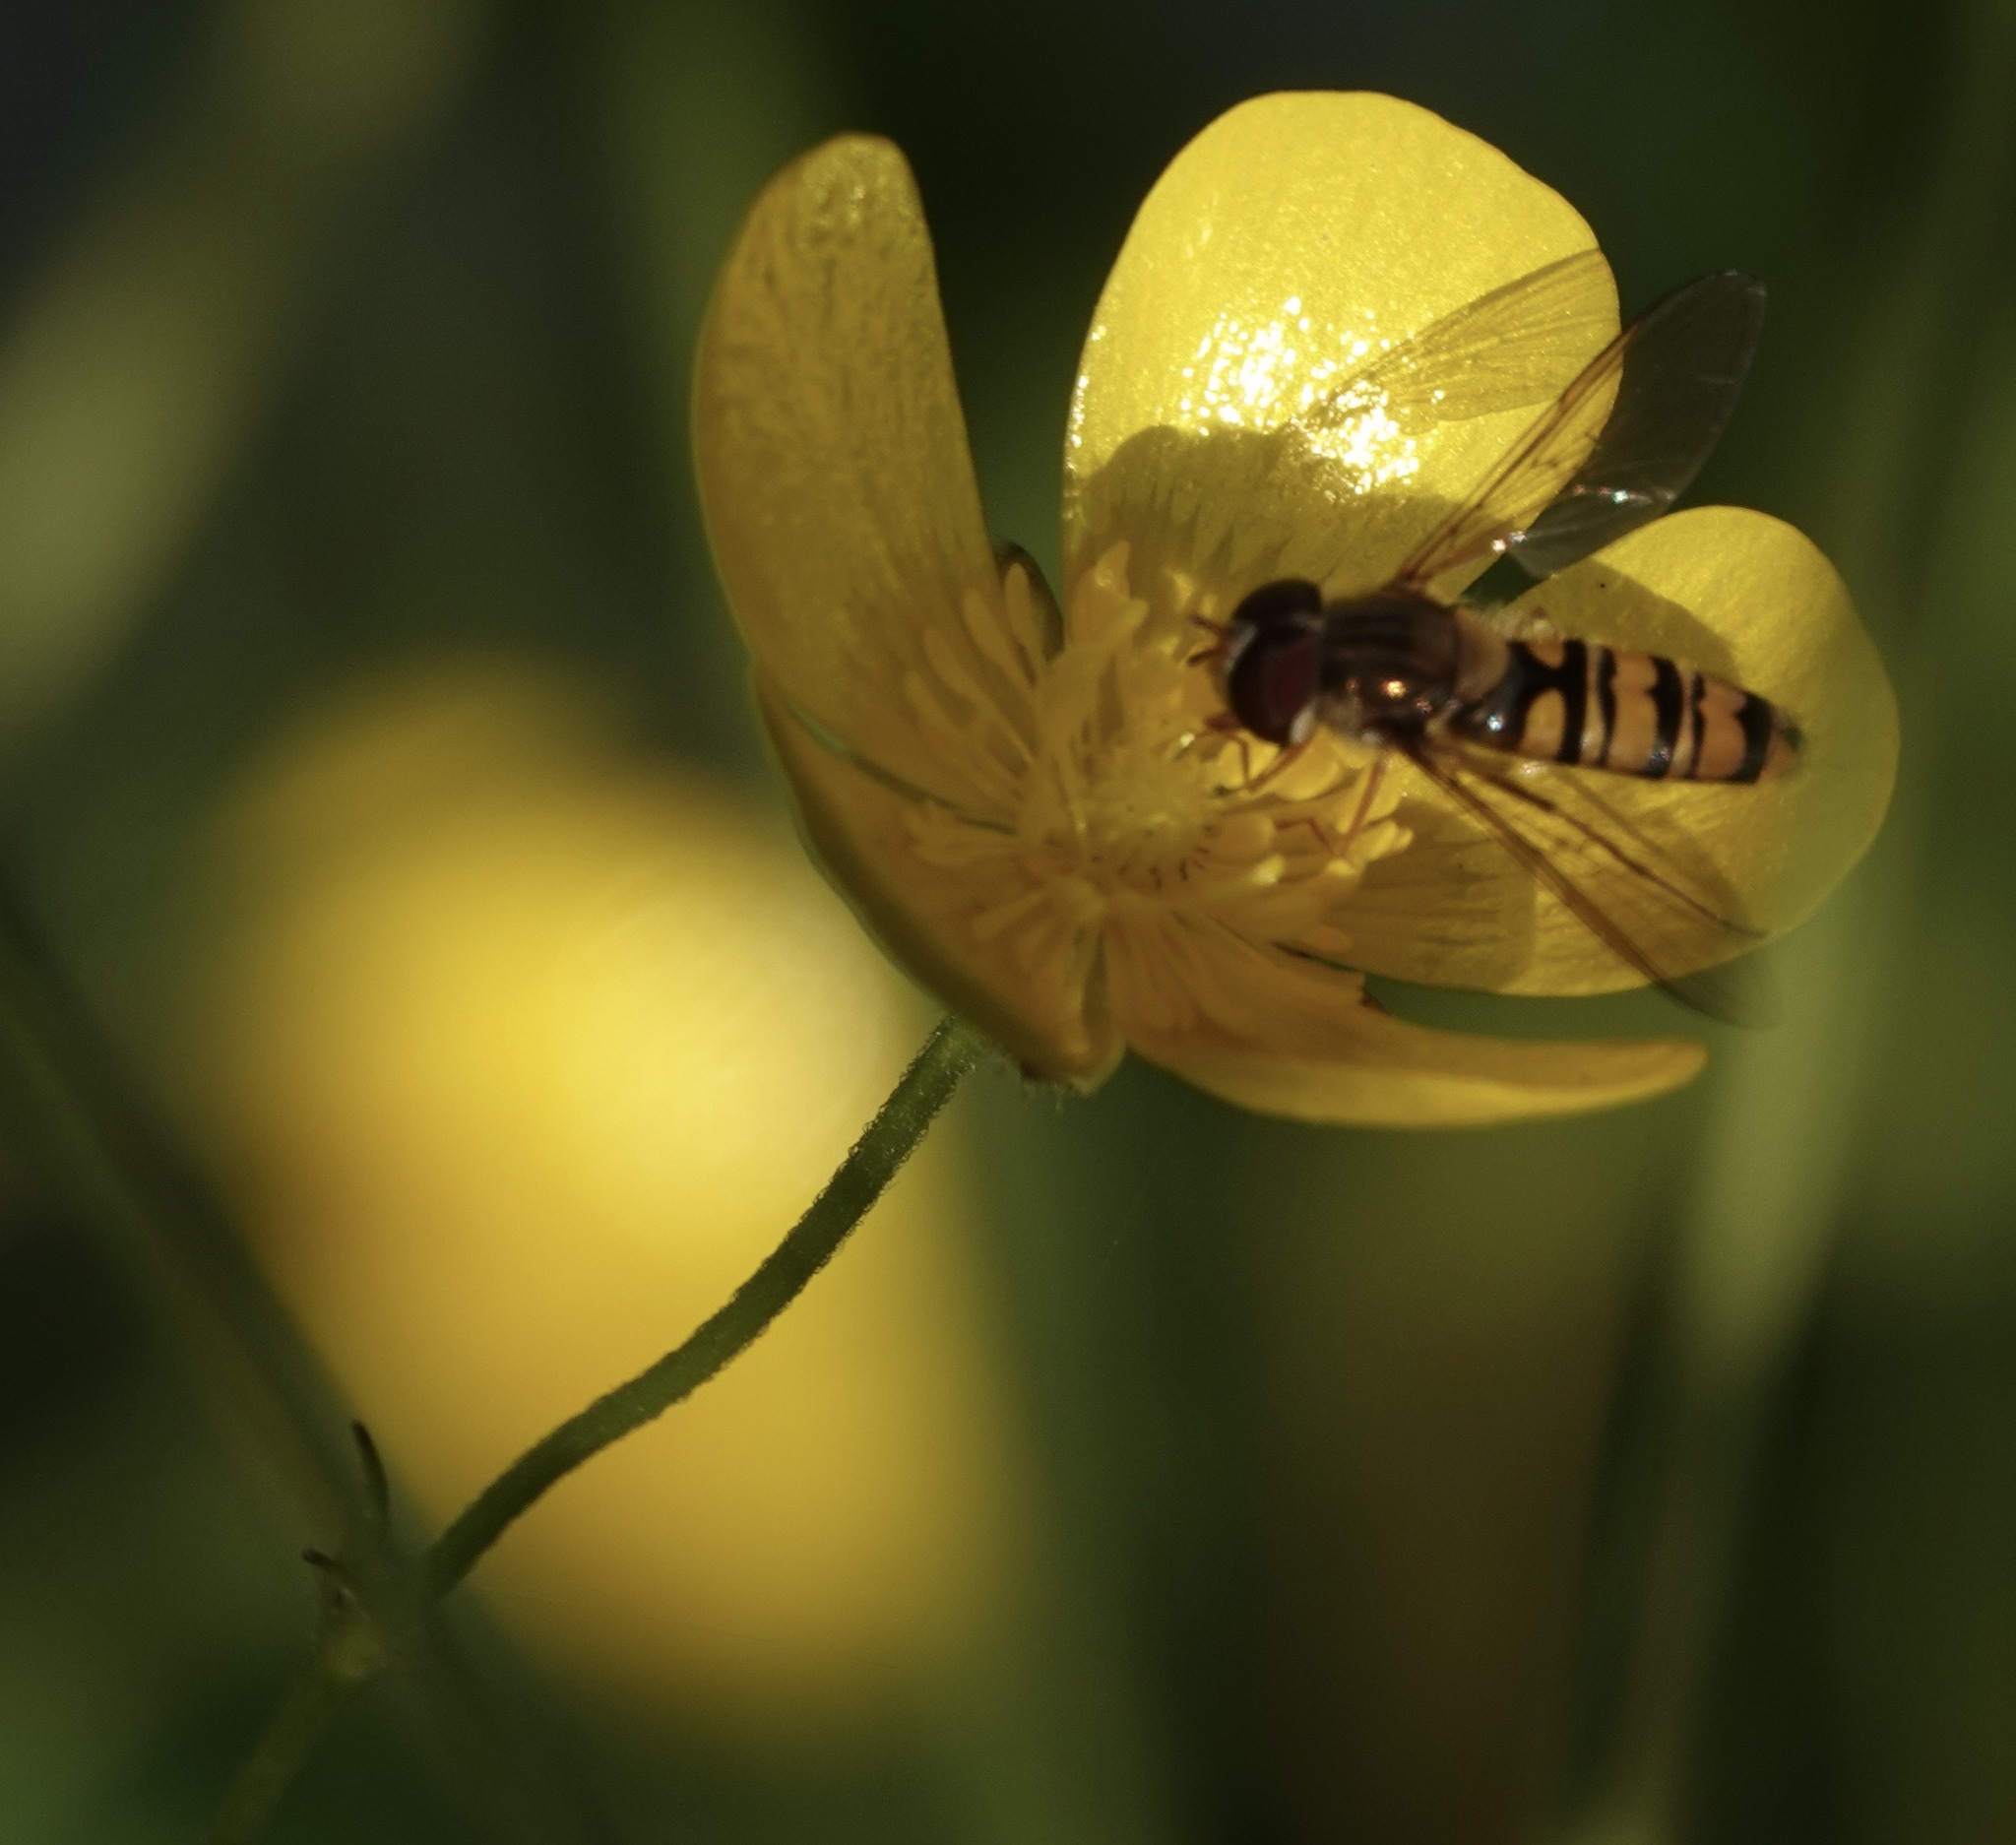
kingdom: Animalia
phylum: Arthropoda
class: Insecta
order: Diptera
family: Syrphidae
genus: Episyrphus
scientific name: Episyrphus balteatus
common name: Marmalade hoverfly
